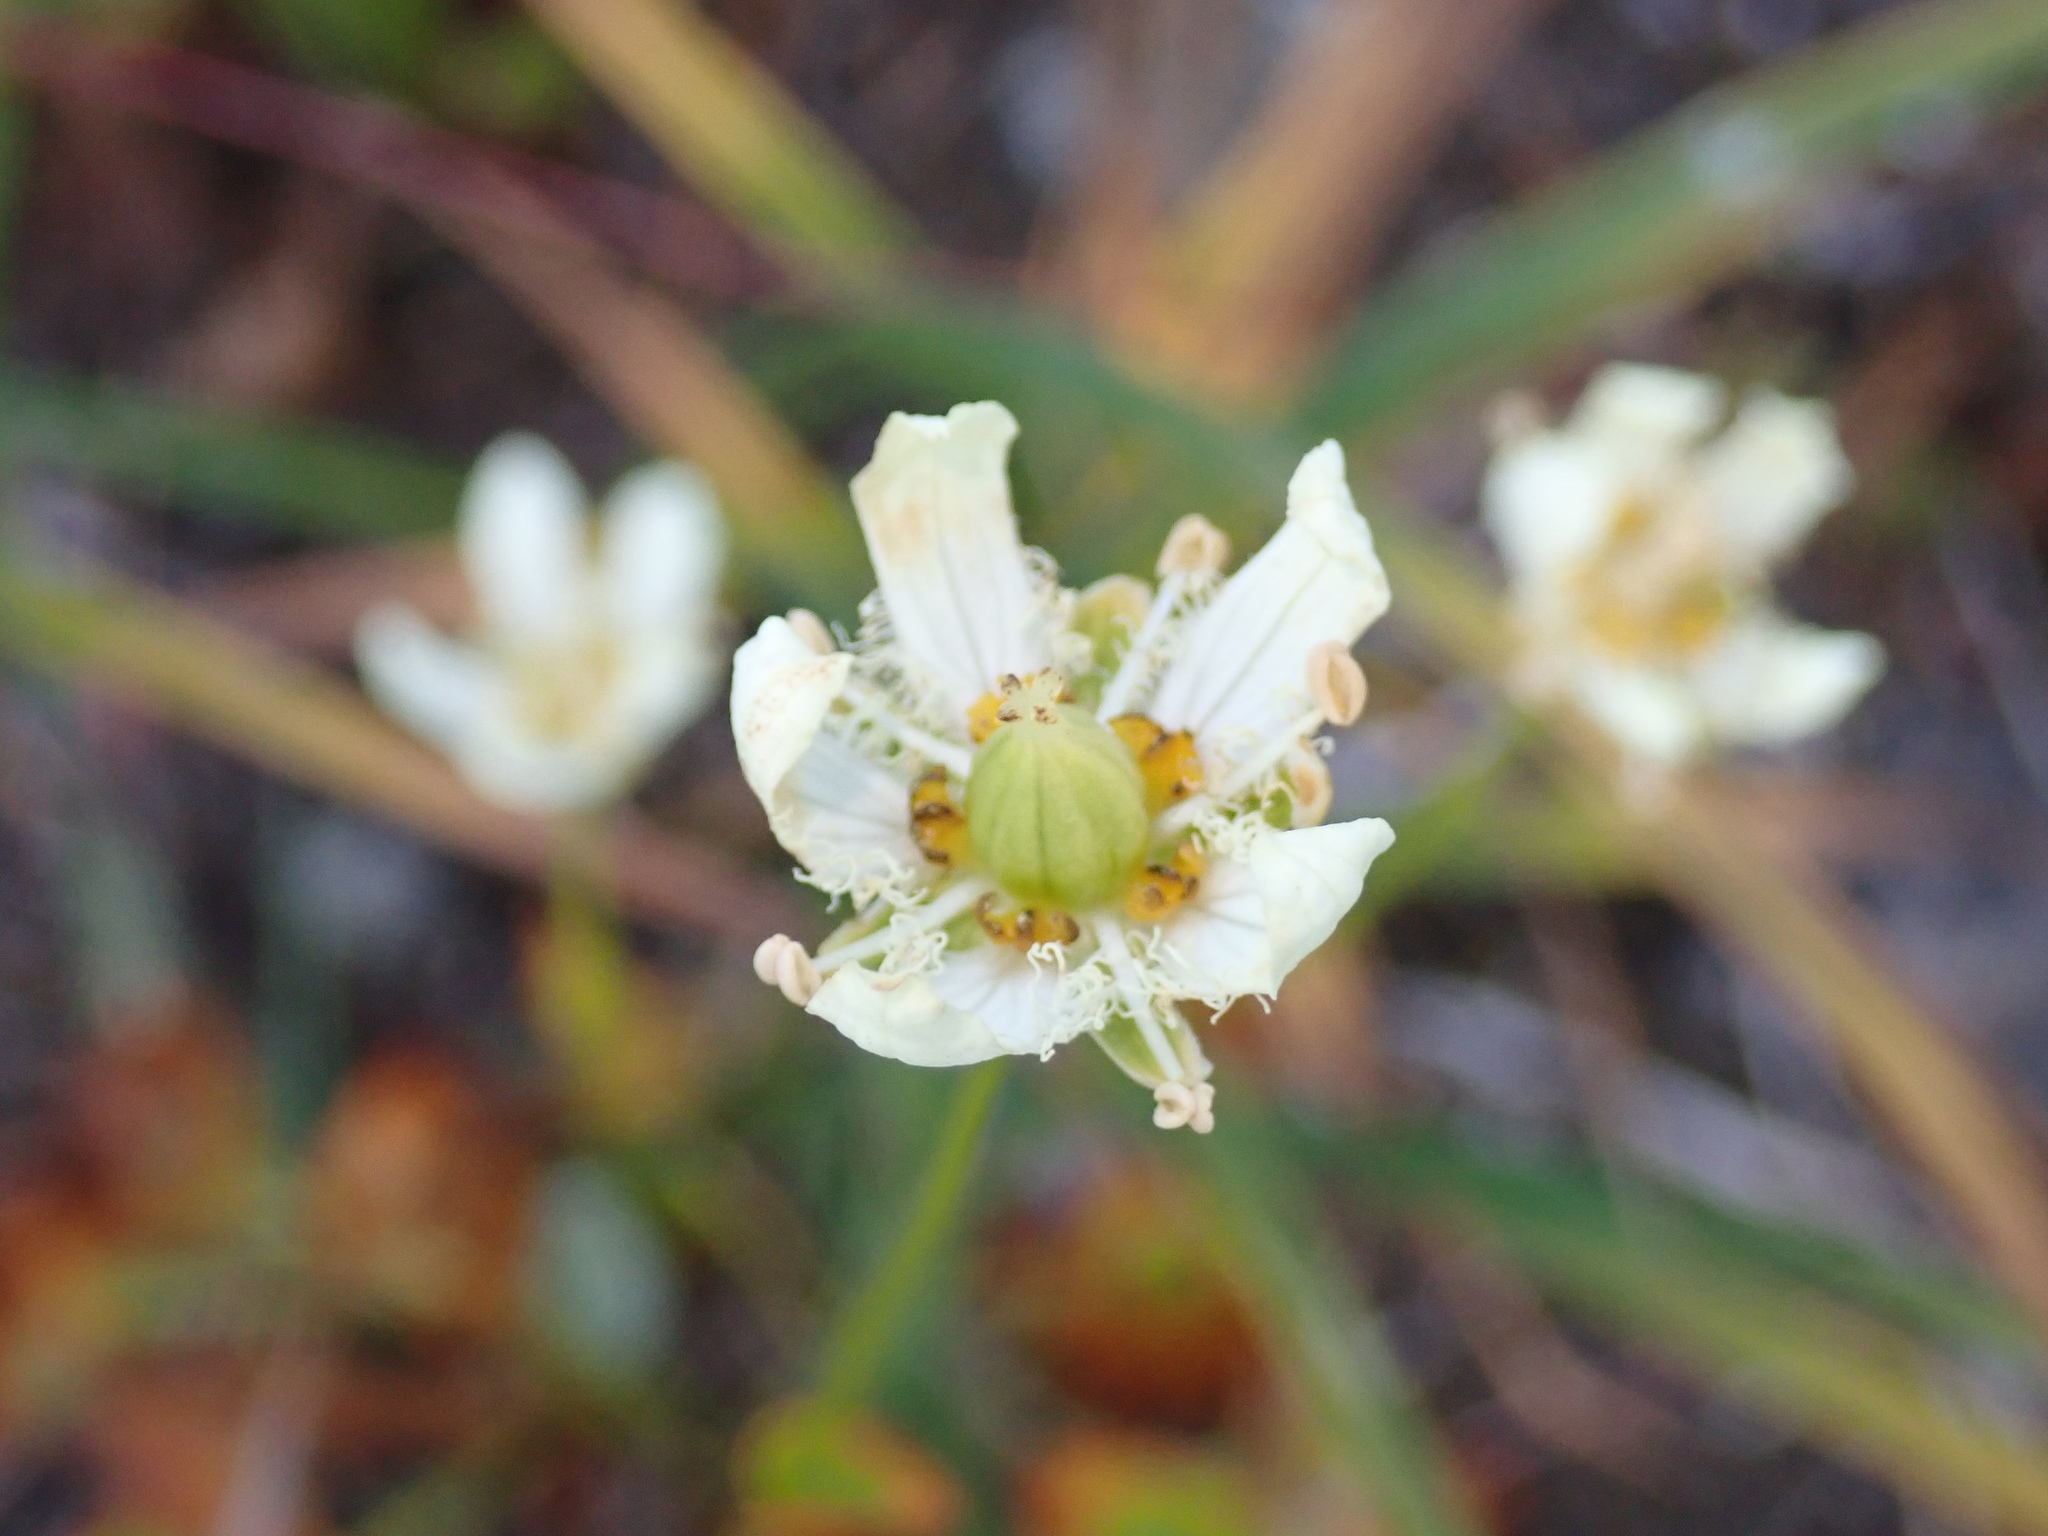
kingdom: Plantae
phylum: Tracheophyta
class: Magnoliopsida
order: Celastrales
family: Parnassiaceae
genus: Parnassia
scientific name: Parnassia fimbriata
